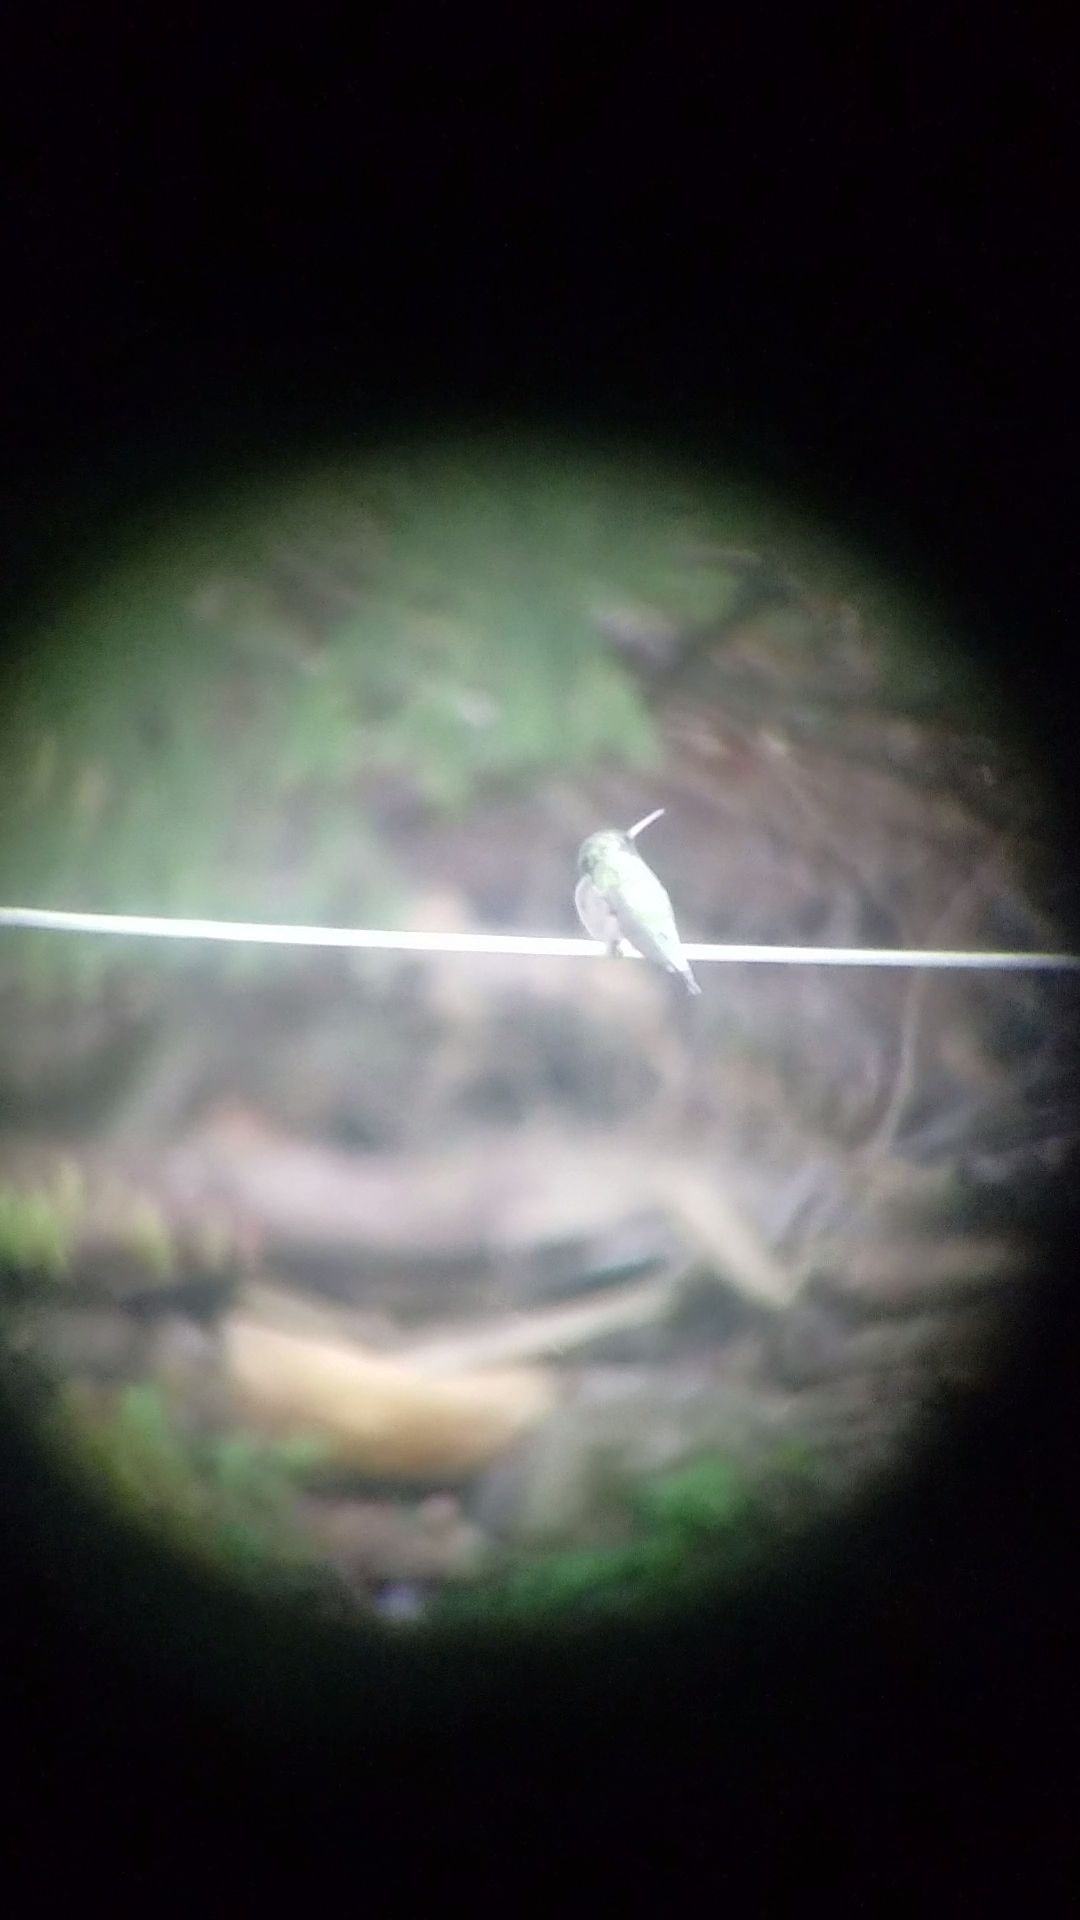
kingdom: Animalia
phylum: Chordata
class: Aves
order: Apodiformes
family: Trochilidae
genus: Archilochus
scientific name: Archilochus colubris
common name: Ruby-throated hummingbird
